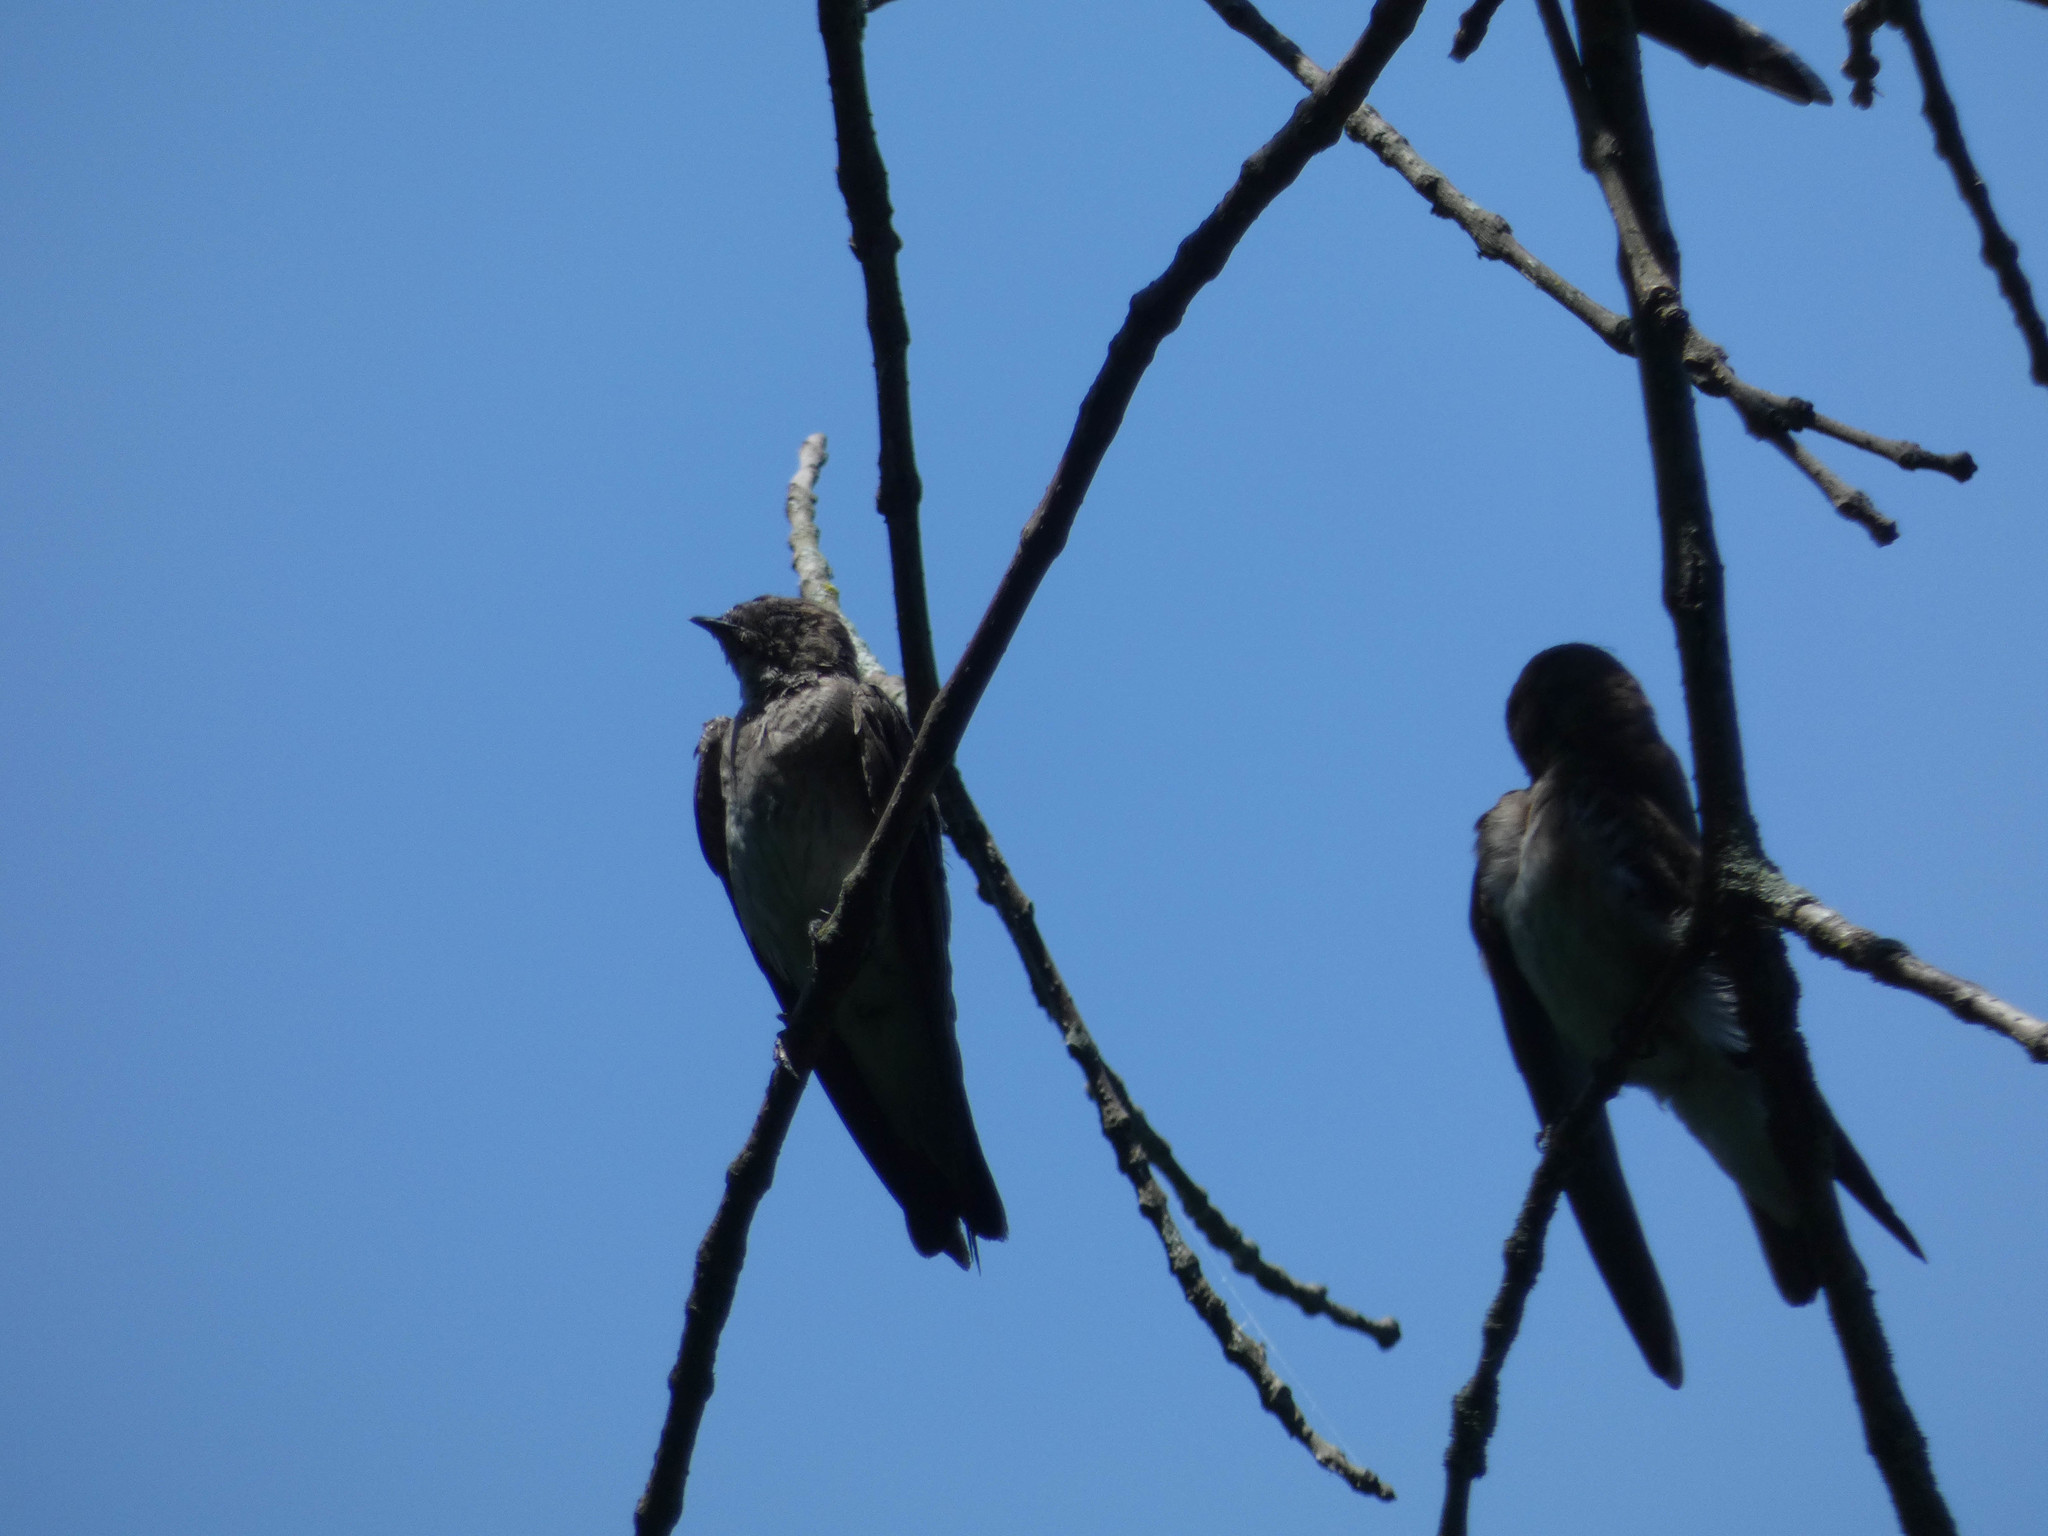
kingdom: Animalia
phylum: Chordata
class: Aves
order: Passeriformes
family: Hirundinidae
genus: Stelgidopteryx
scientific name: Stelgidopteryx serripennis
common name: Northern rough-winged swallow
